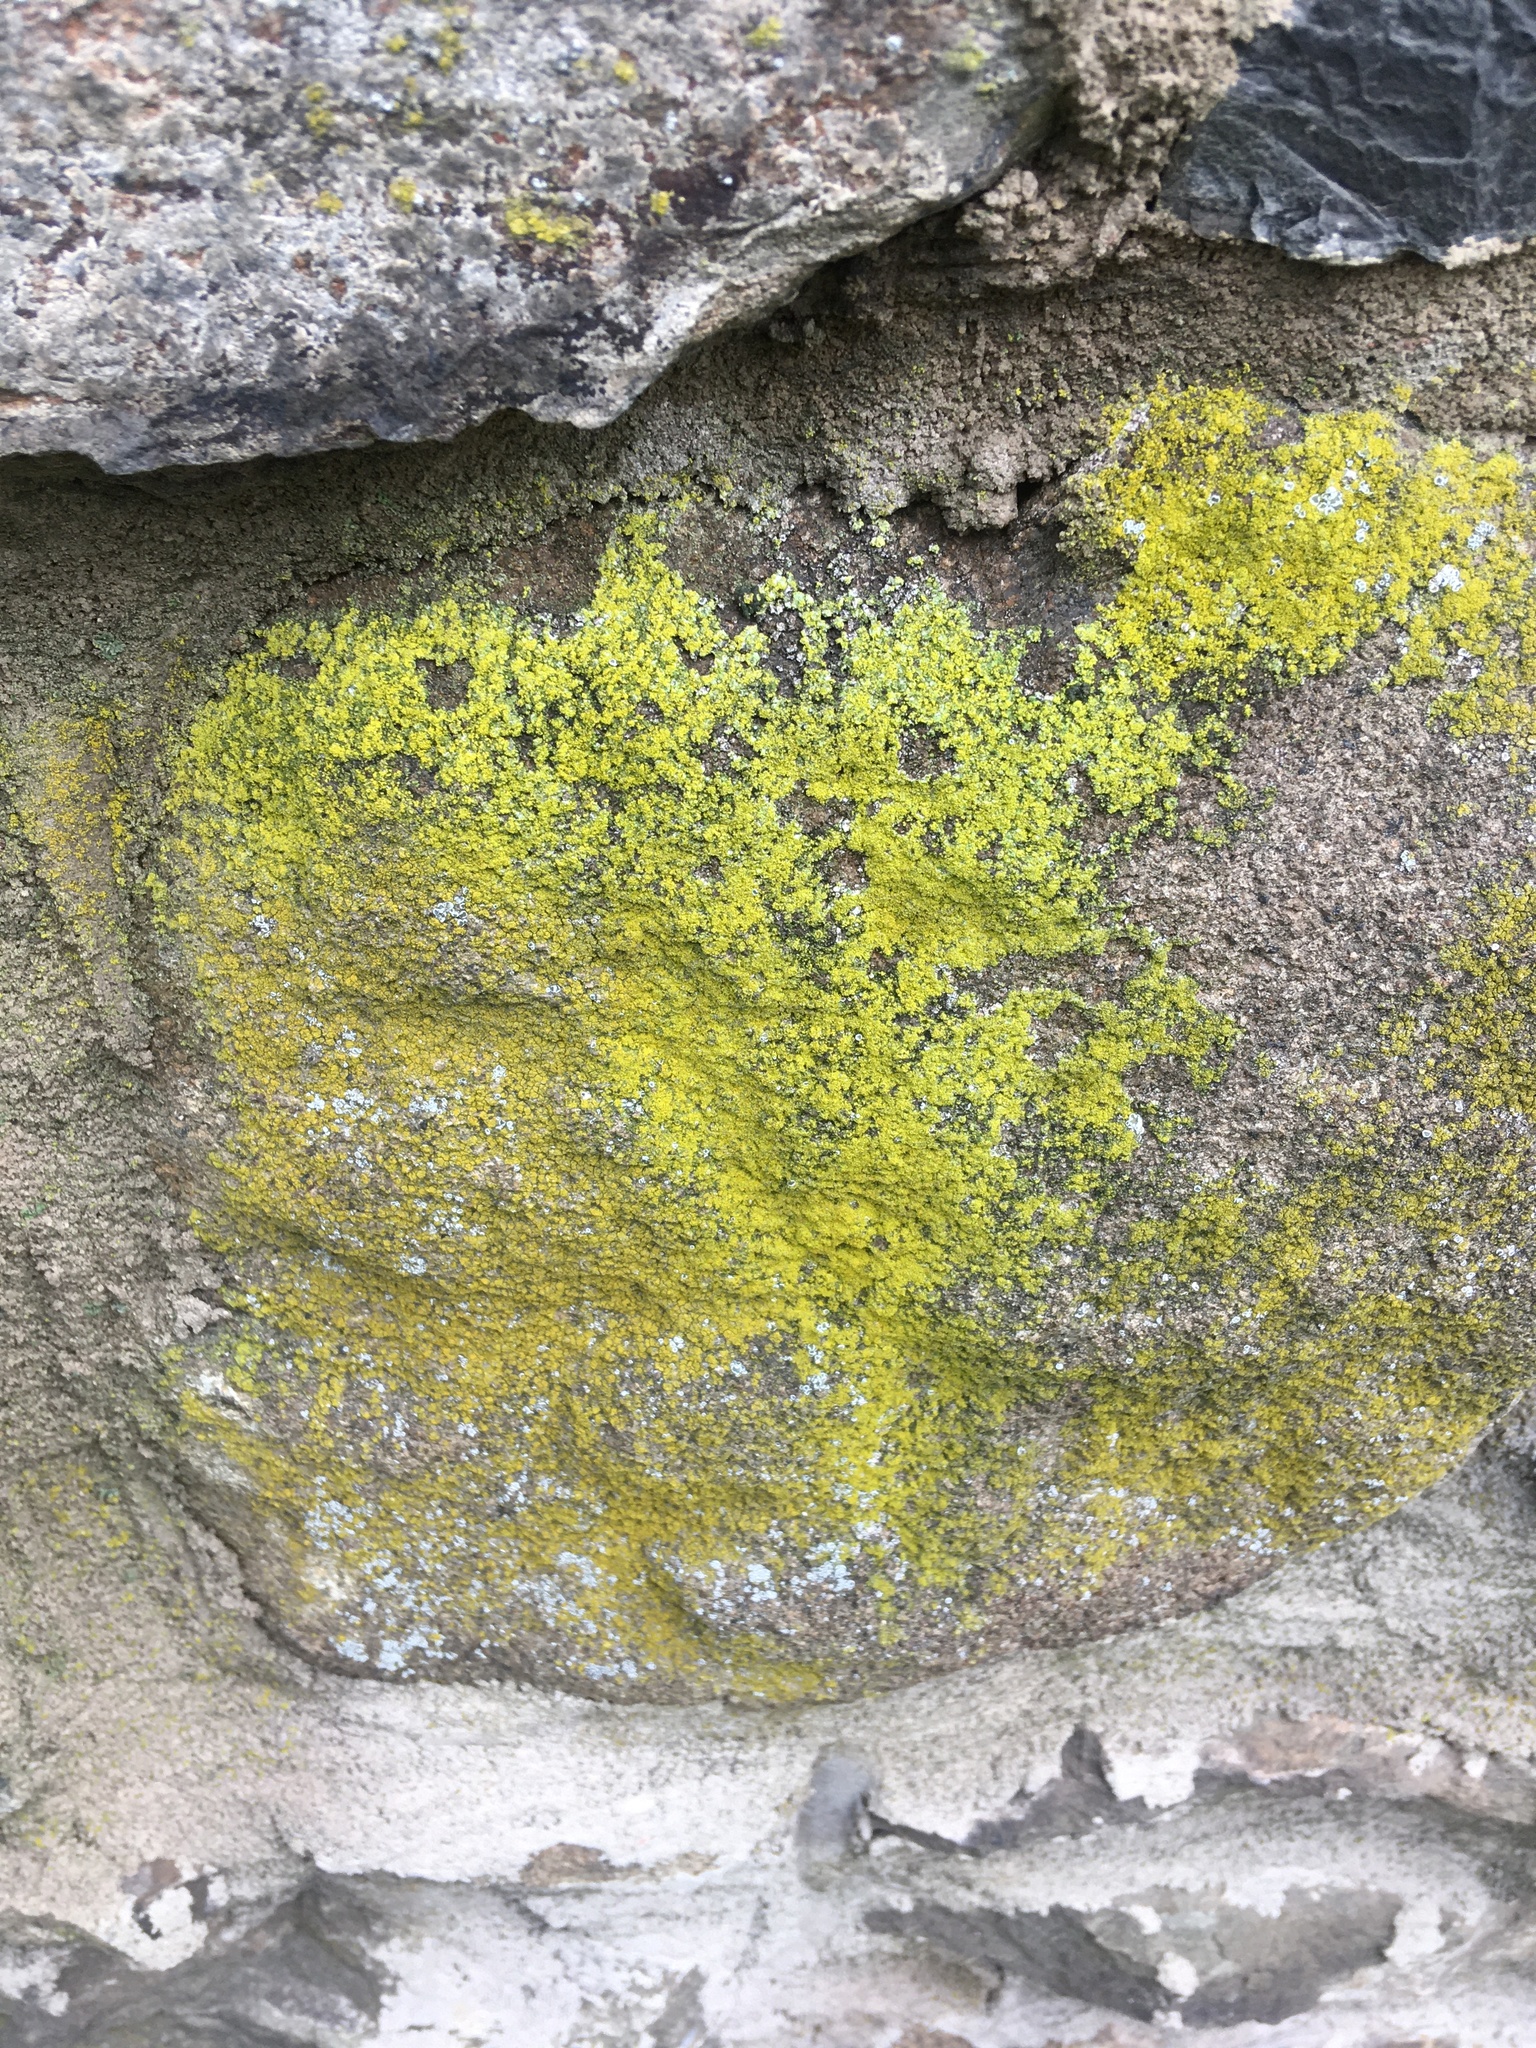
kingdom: Fungi
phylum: Ascomycota
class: Arthoniomycetes
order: Arthoniales
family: Chrysotrichaceae
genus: Chrysothrix
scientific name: Chrysothrix candelaris
